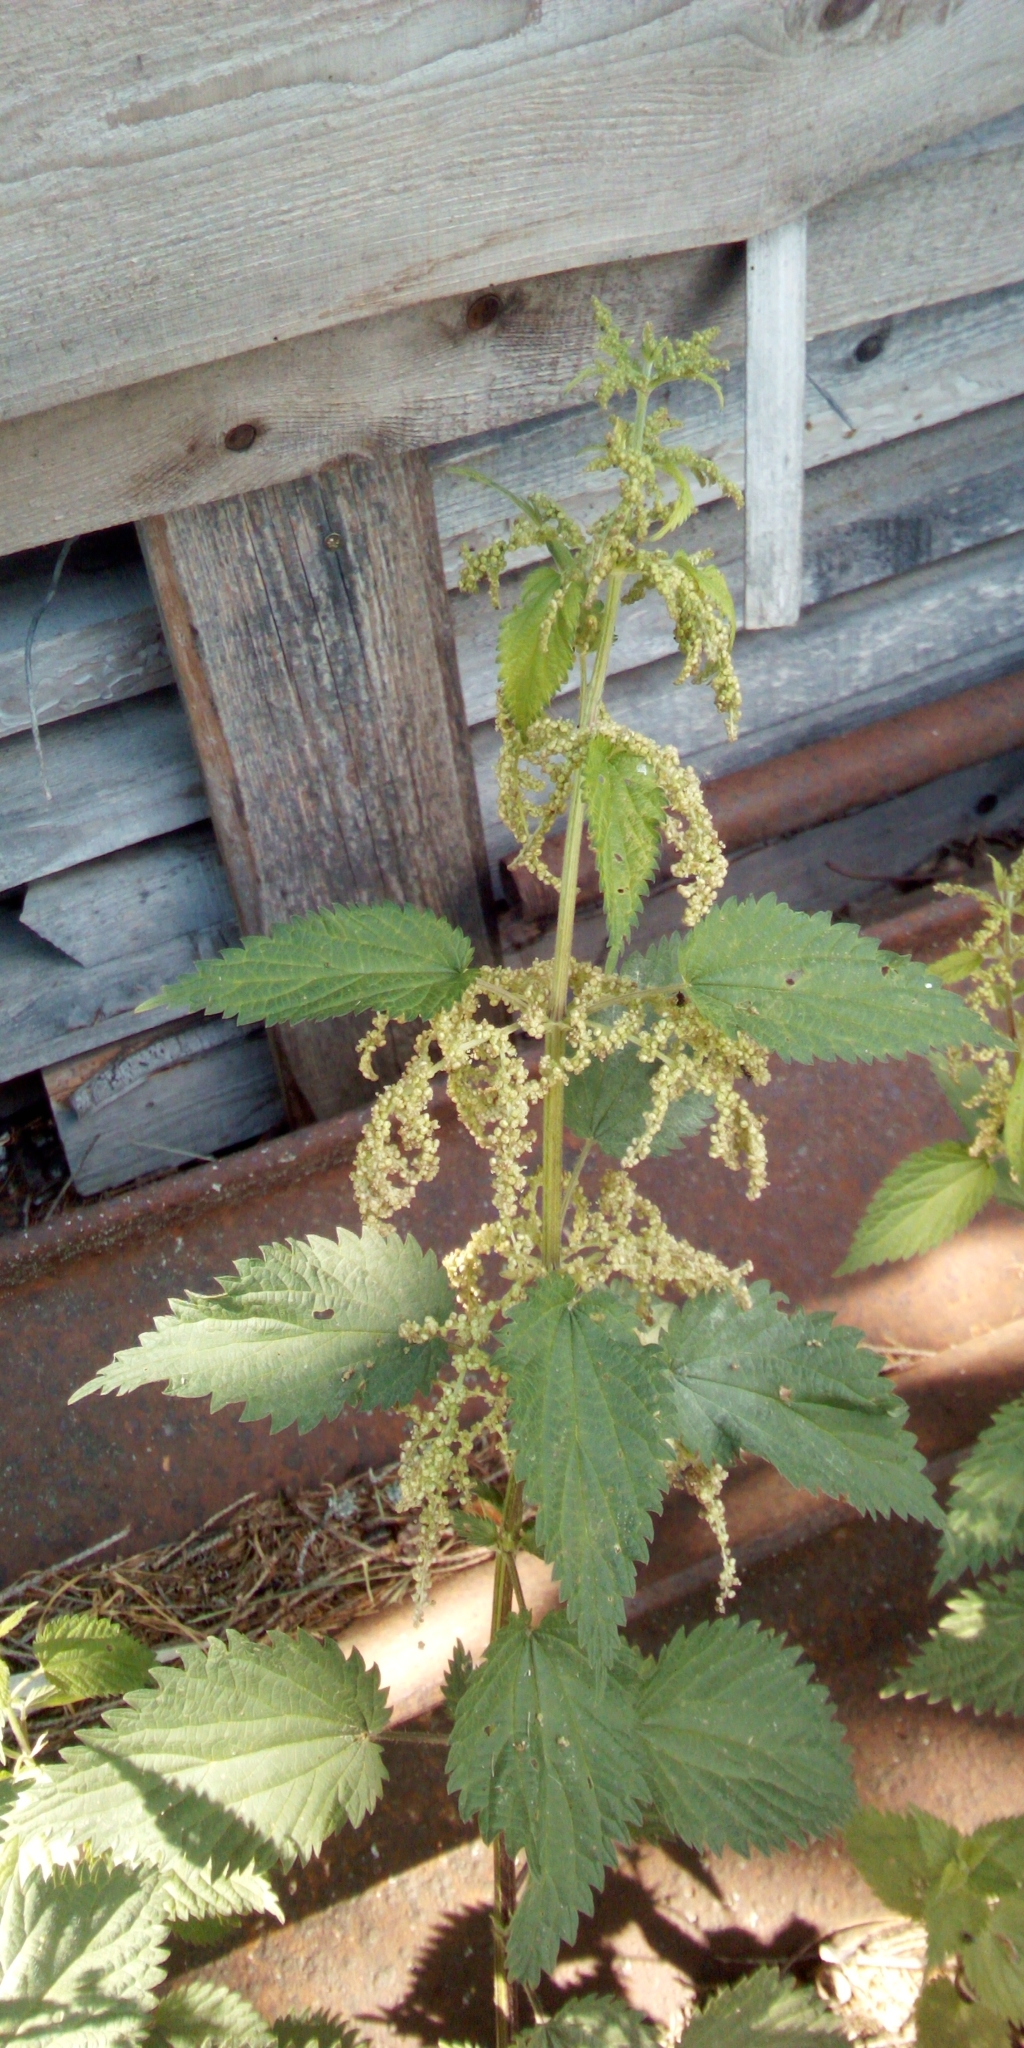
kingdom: Plantae
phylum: Tracheophyta
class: Magnoliopsida
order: Rosales
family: Urticaceae
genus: Urtica
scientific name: Urtica dioica
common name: Common nettle
